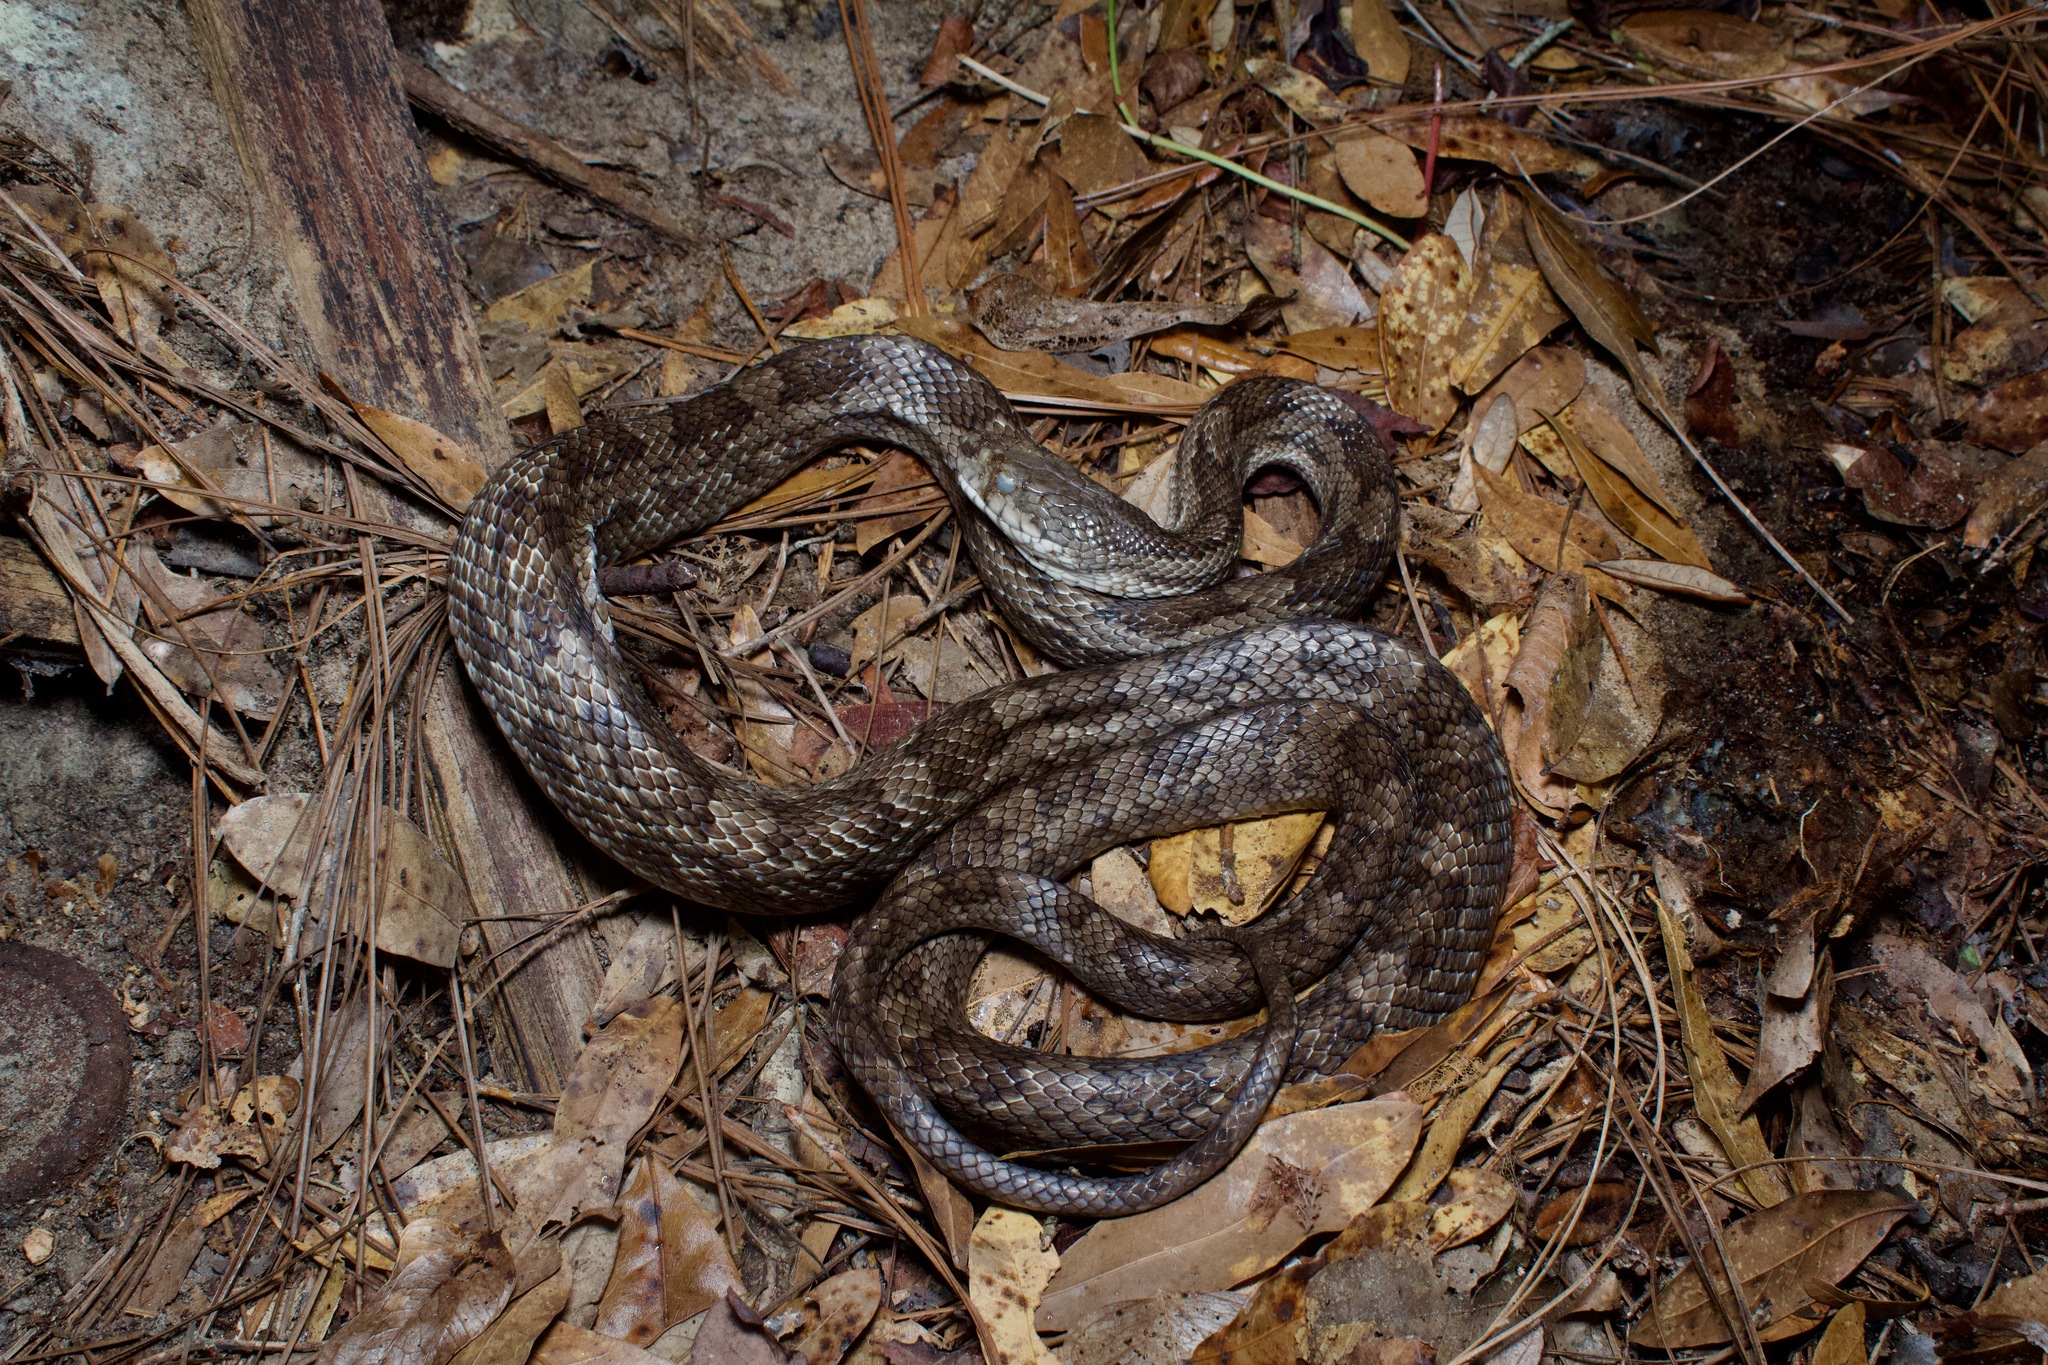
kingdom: Animalia
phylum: Chordata
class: Squamata
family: Colubridae
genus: Pantherophis
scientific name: Pantherophis spiloides
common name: Gray rat snake
